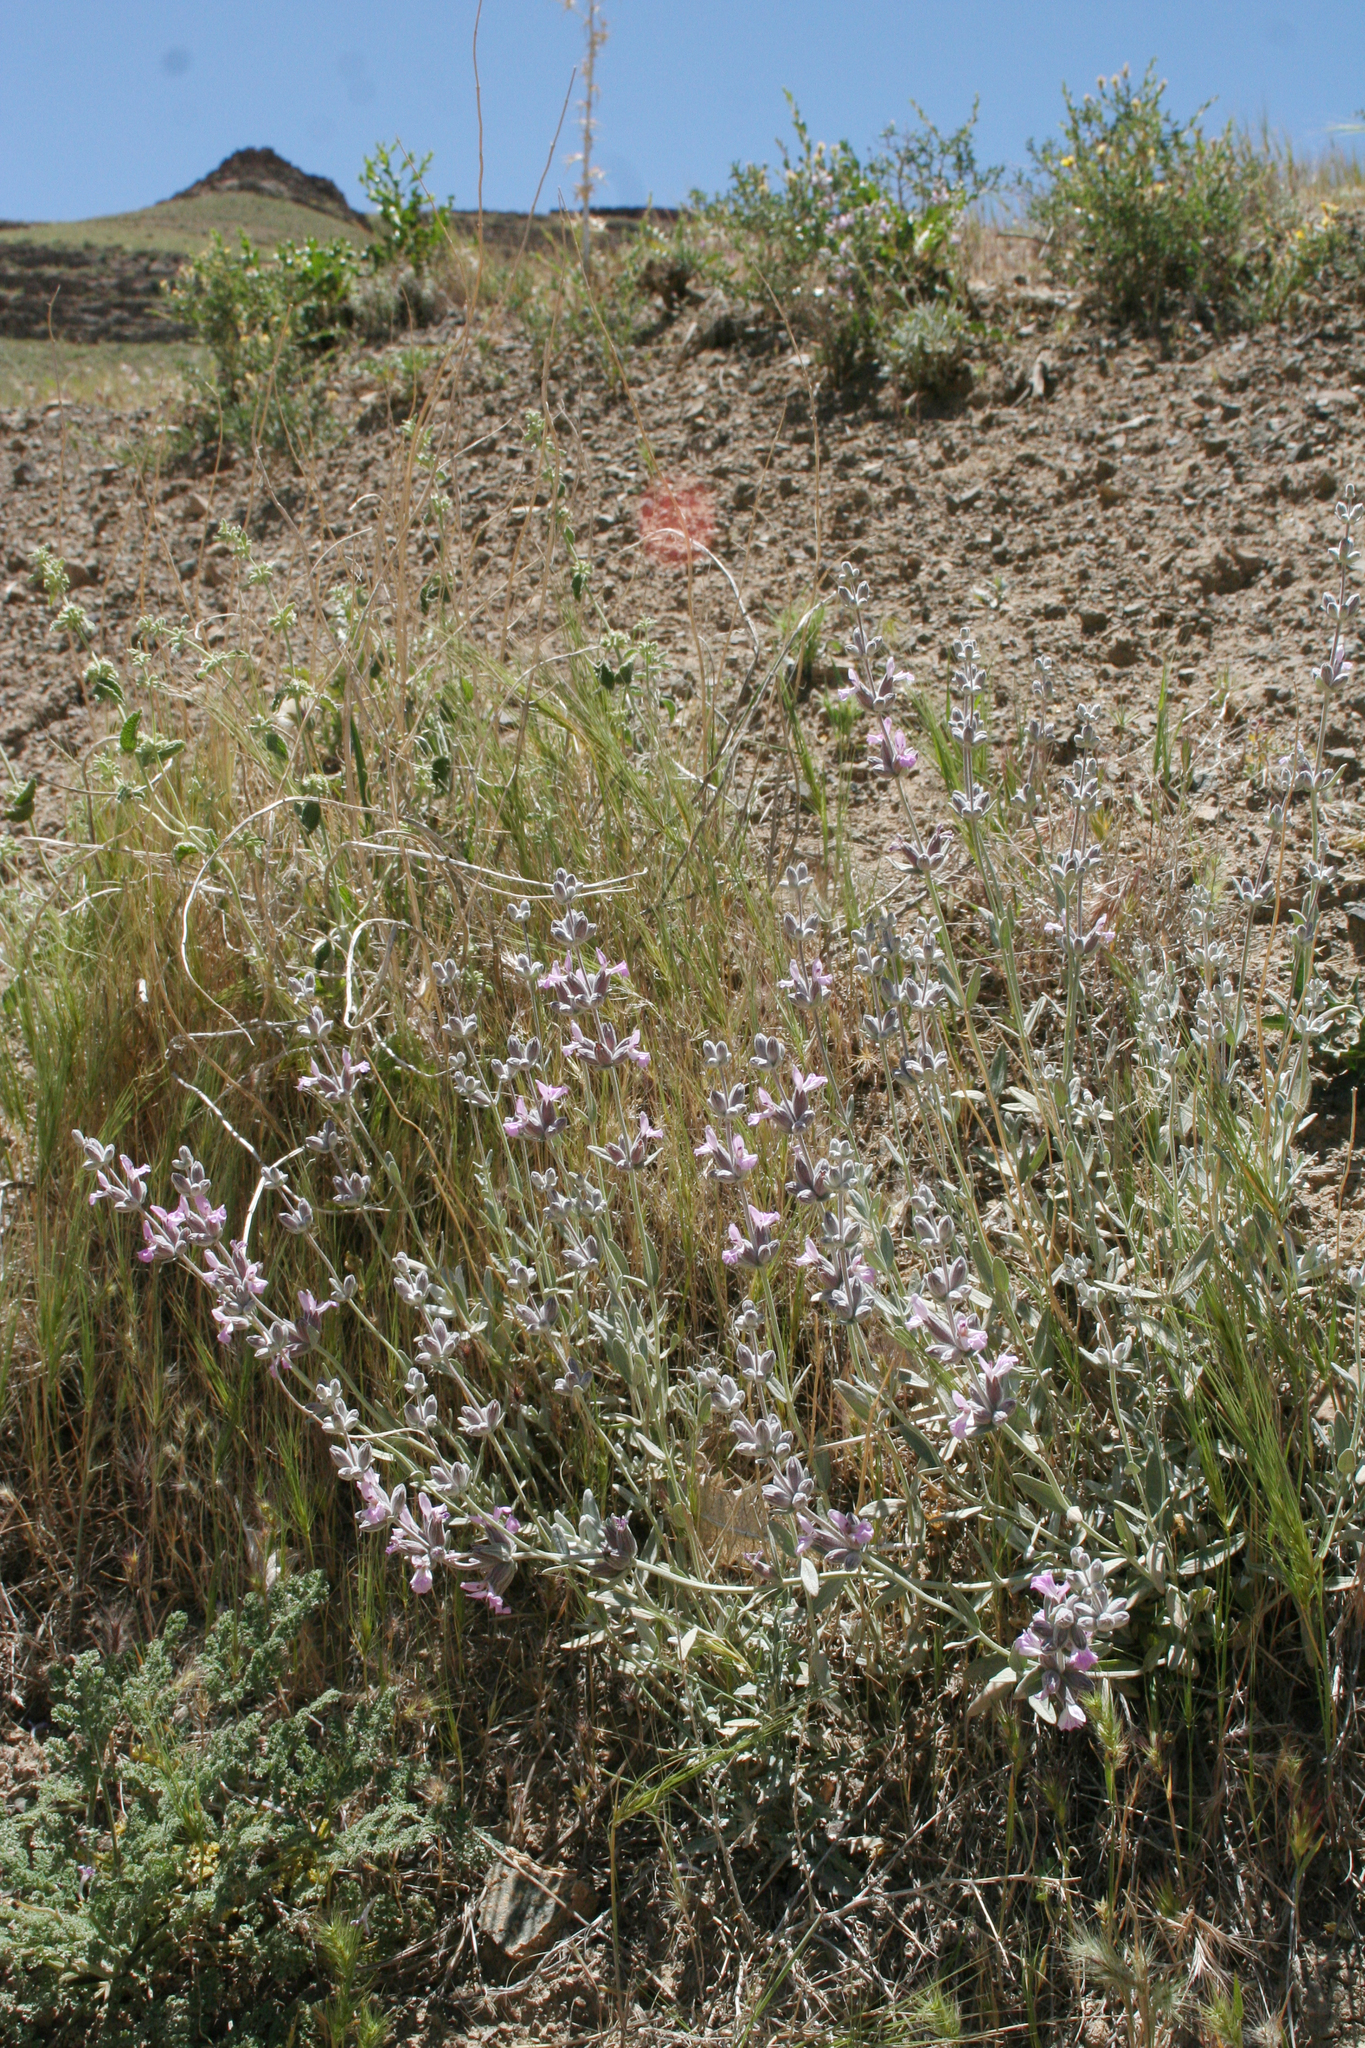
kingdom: Plantae
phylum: Tracheophyta
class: Magnoliopsida
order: Lamiales
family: Lamiaceae
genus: Stachys
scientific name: Stachys inflata
